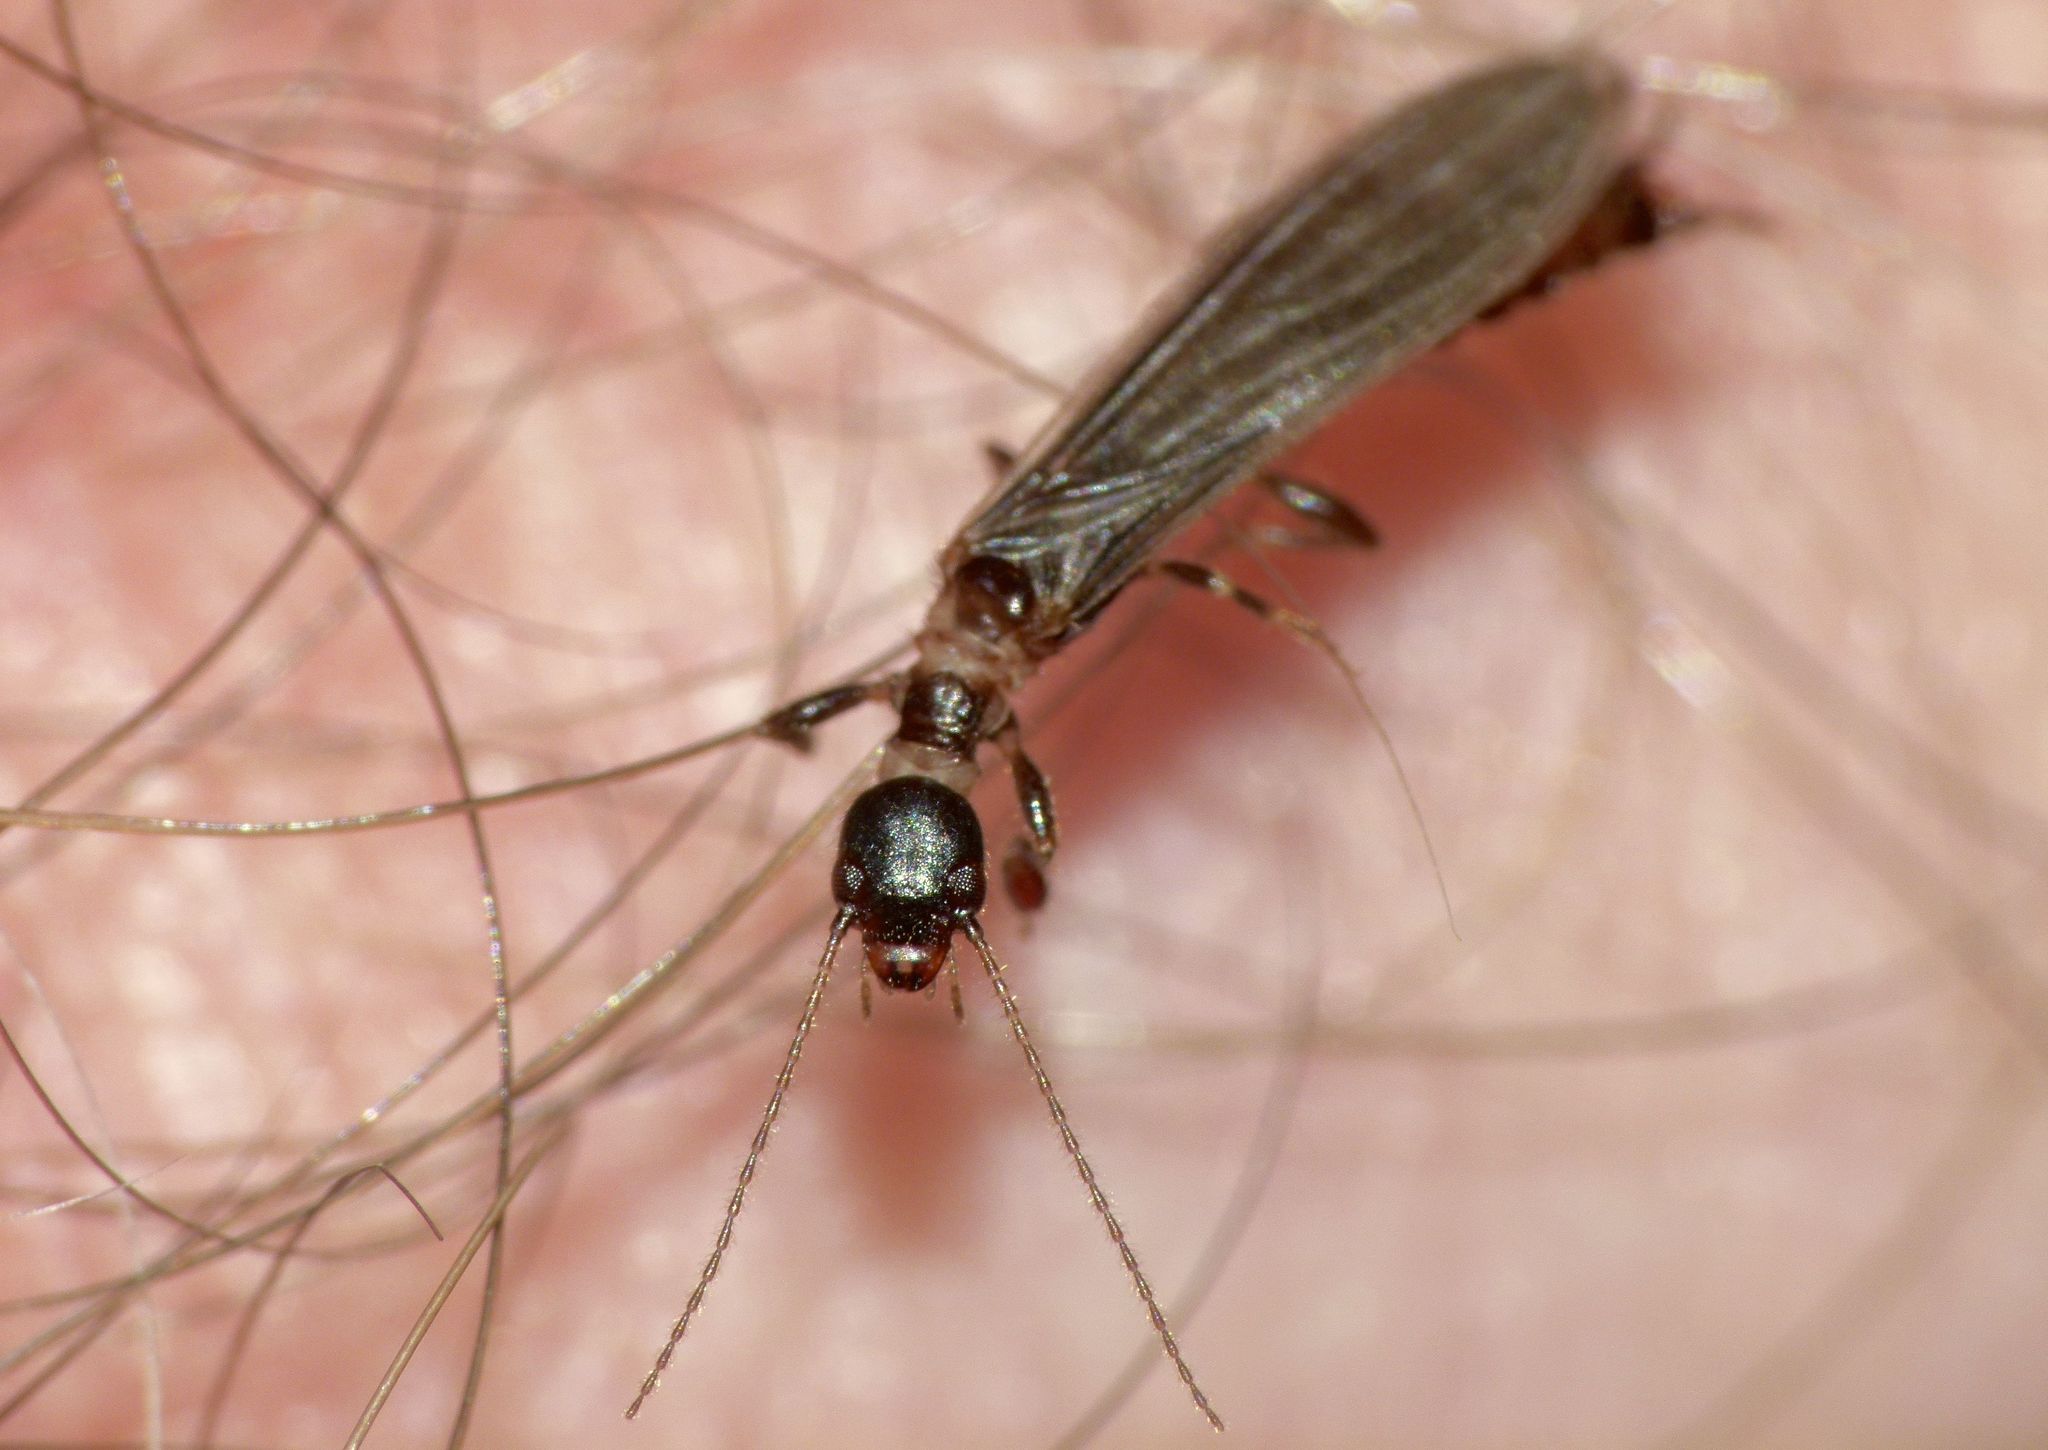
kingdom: Animalia
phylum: Arthropoda
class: Insecta
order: Embioptera
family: Oligotomidae
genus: Oligotoma
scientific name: Oligotoma nigra
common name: Black webspinner
